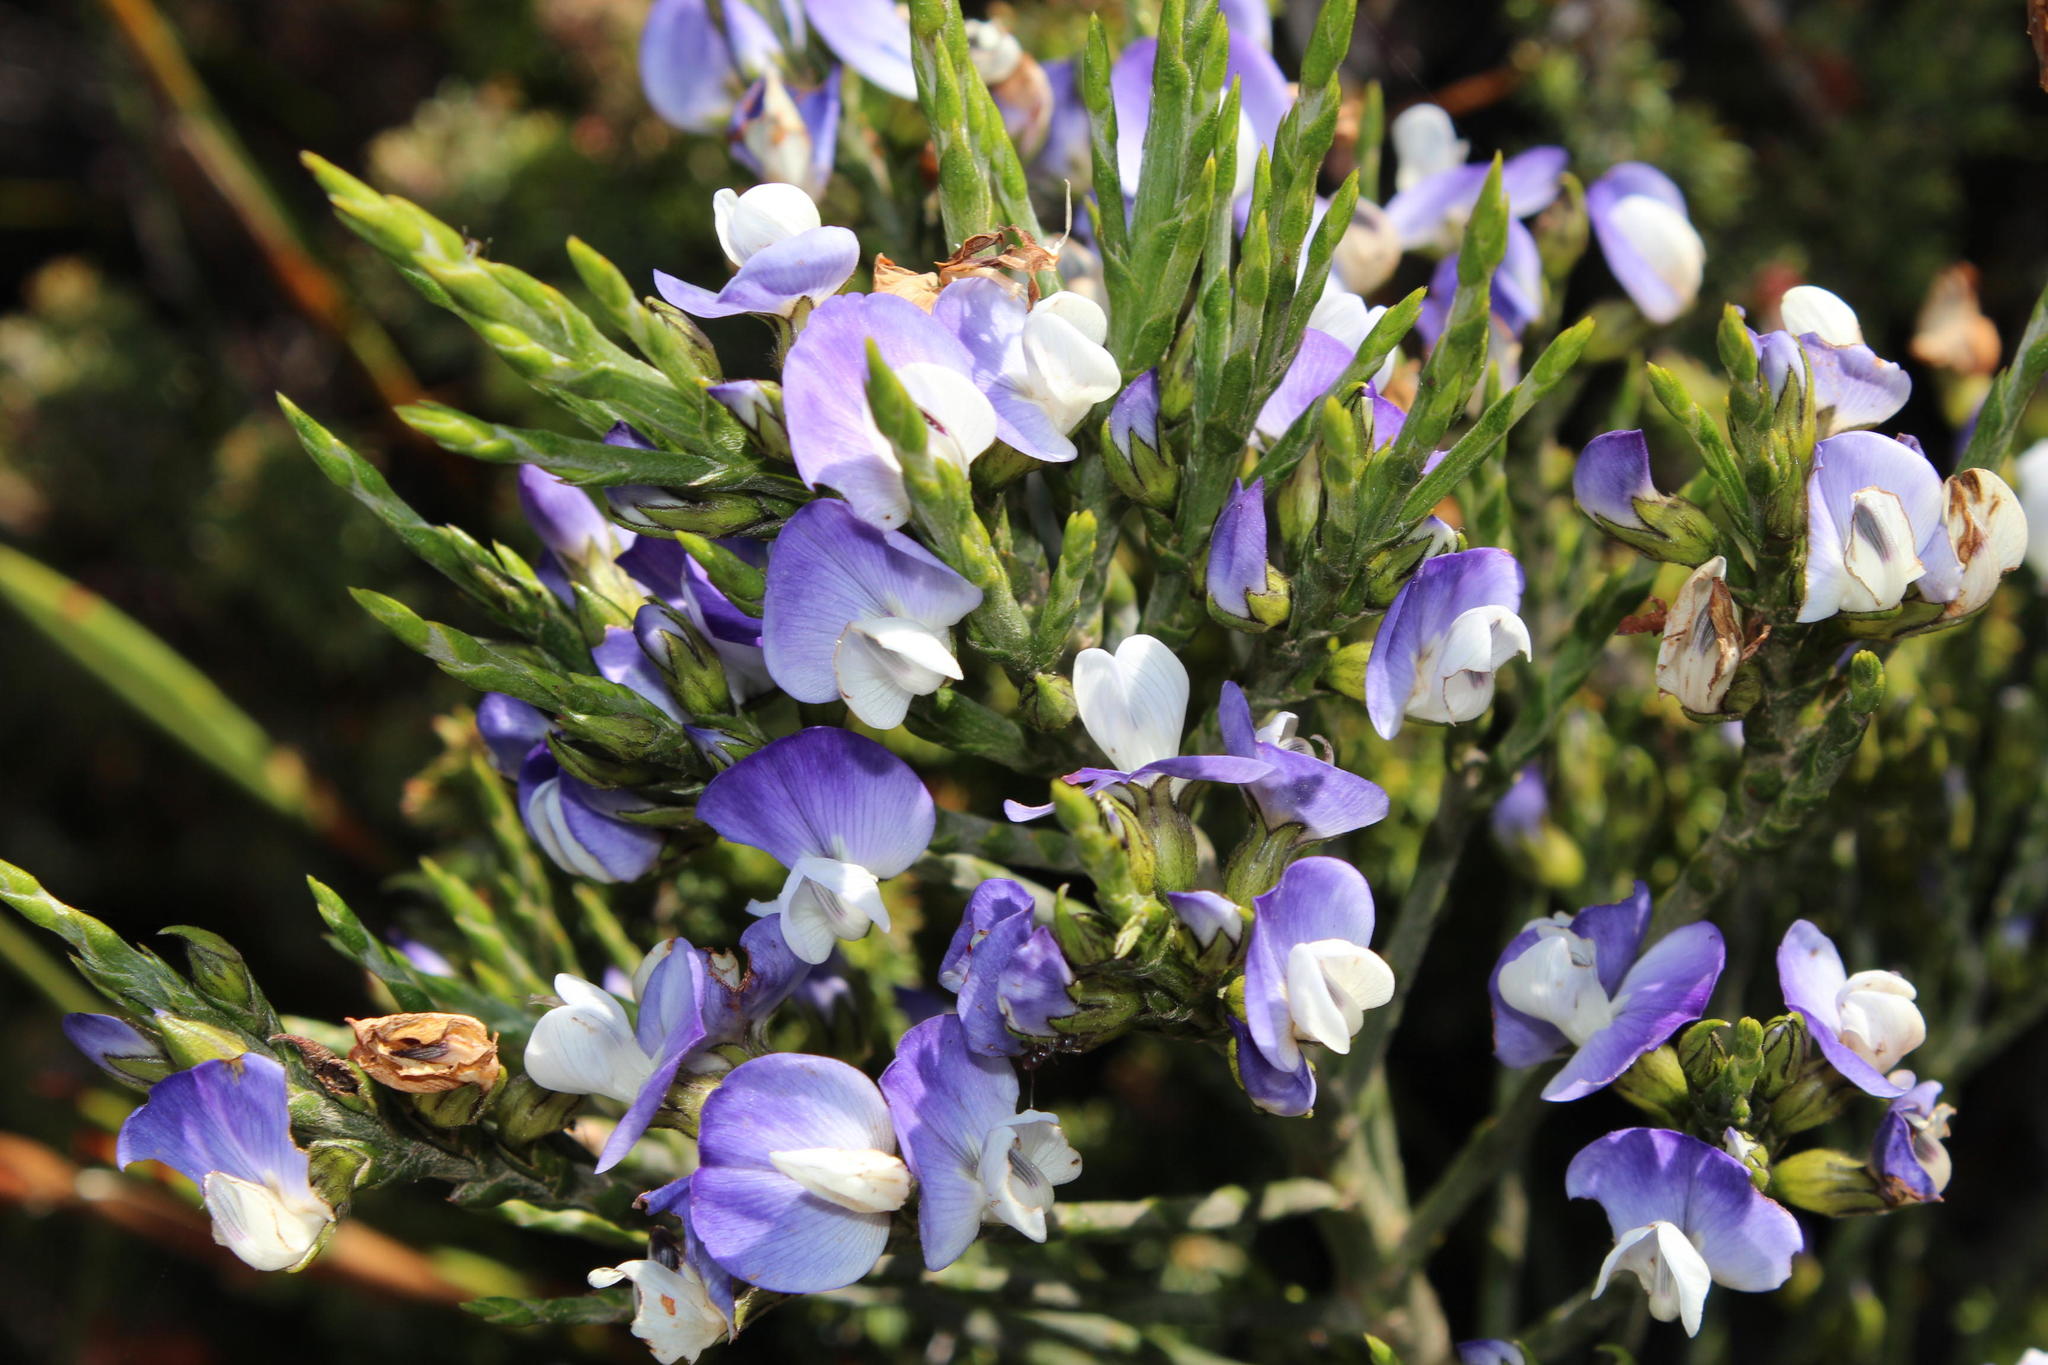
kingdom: Plantae
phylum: Tracheophyta
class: Magnoliopsida
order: Fabales
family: Fabaceae
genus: Psoralea
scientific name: Psoralea congesta
